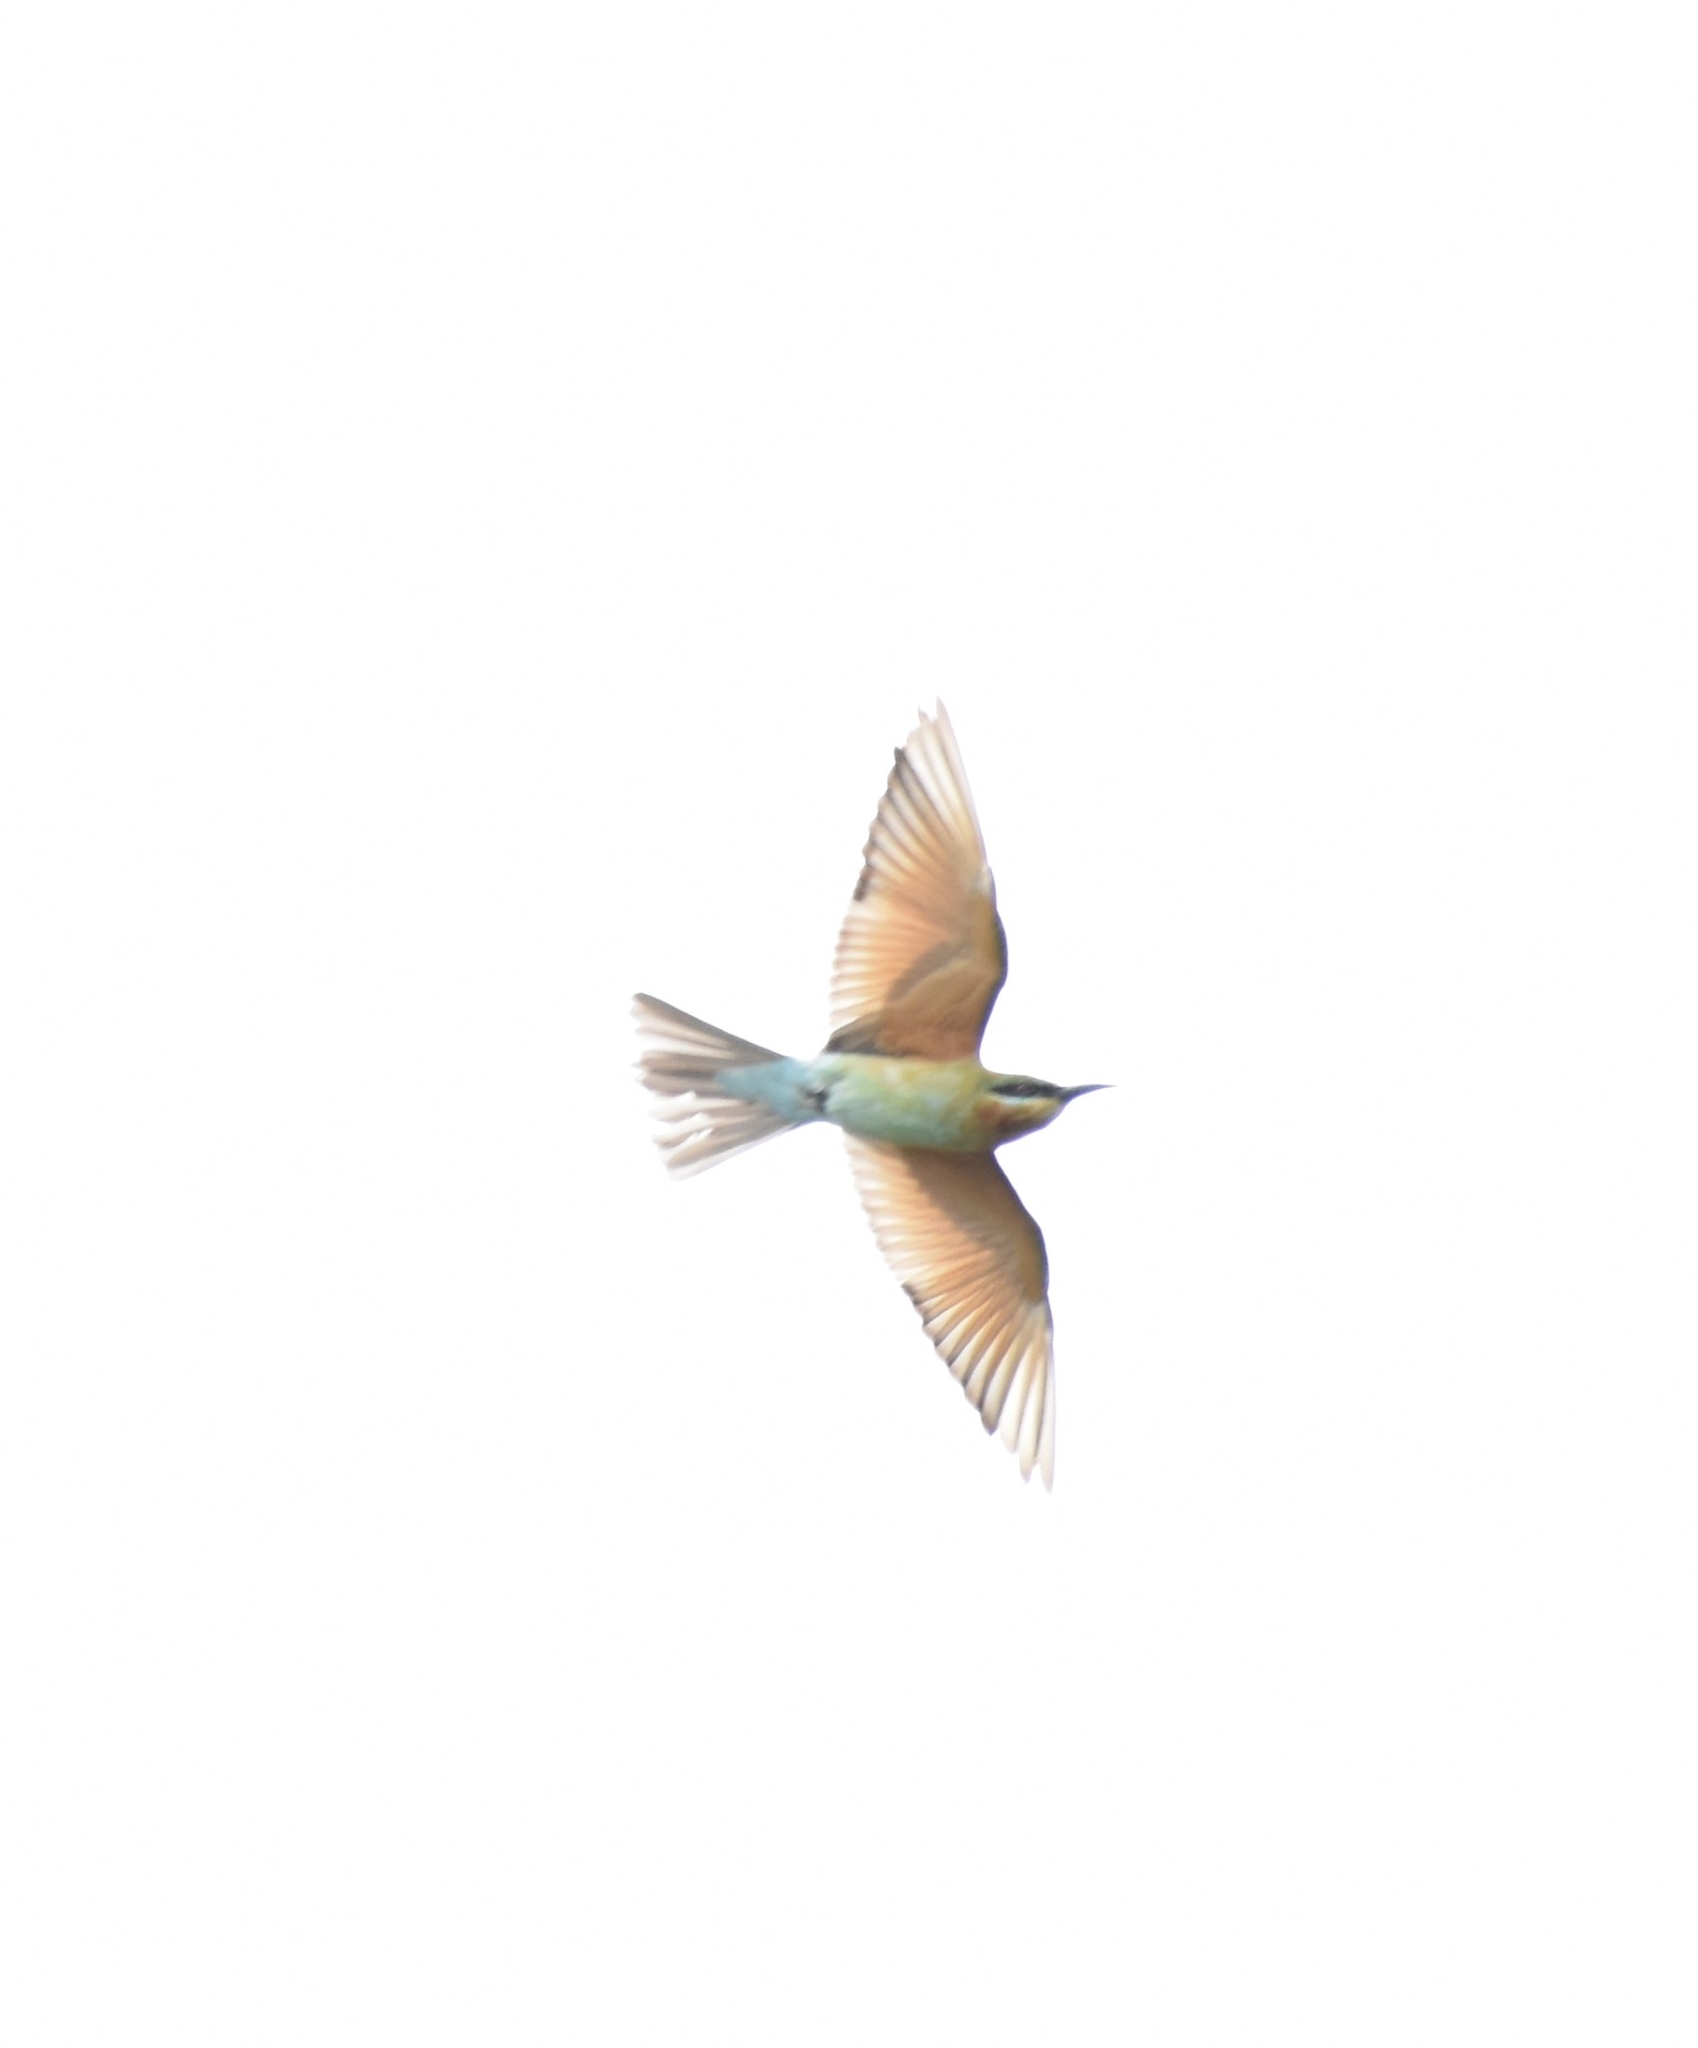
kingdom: Animalia
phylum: Chordata
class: Aves
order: Coraciiformes
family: Meropidae
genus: Merops
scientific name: Merops philippinus
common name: Blue-tailed bee-eater
